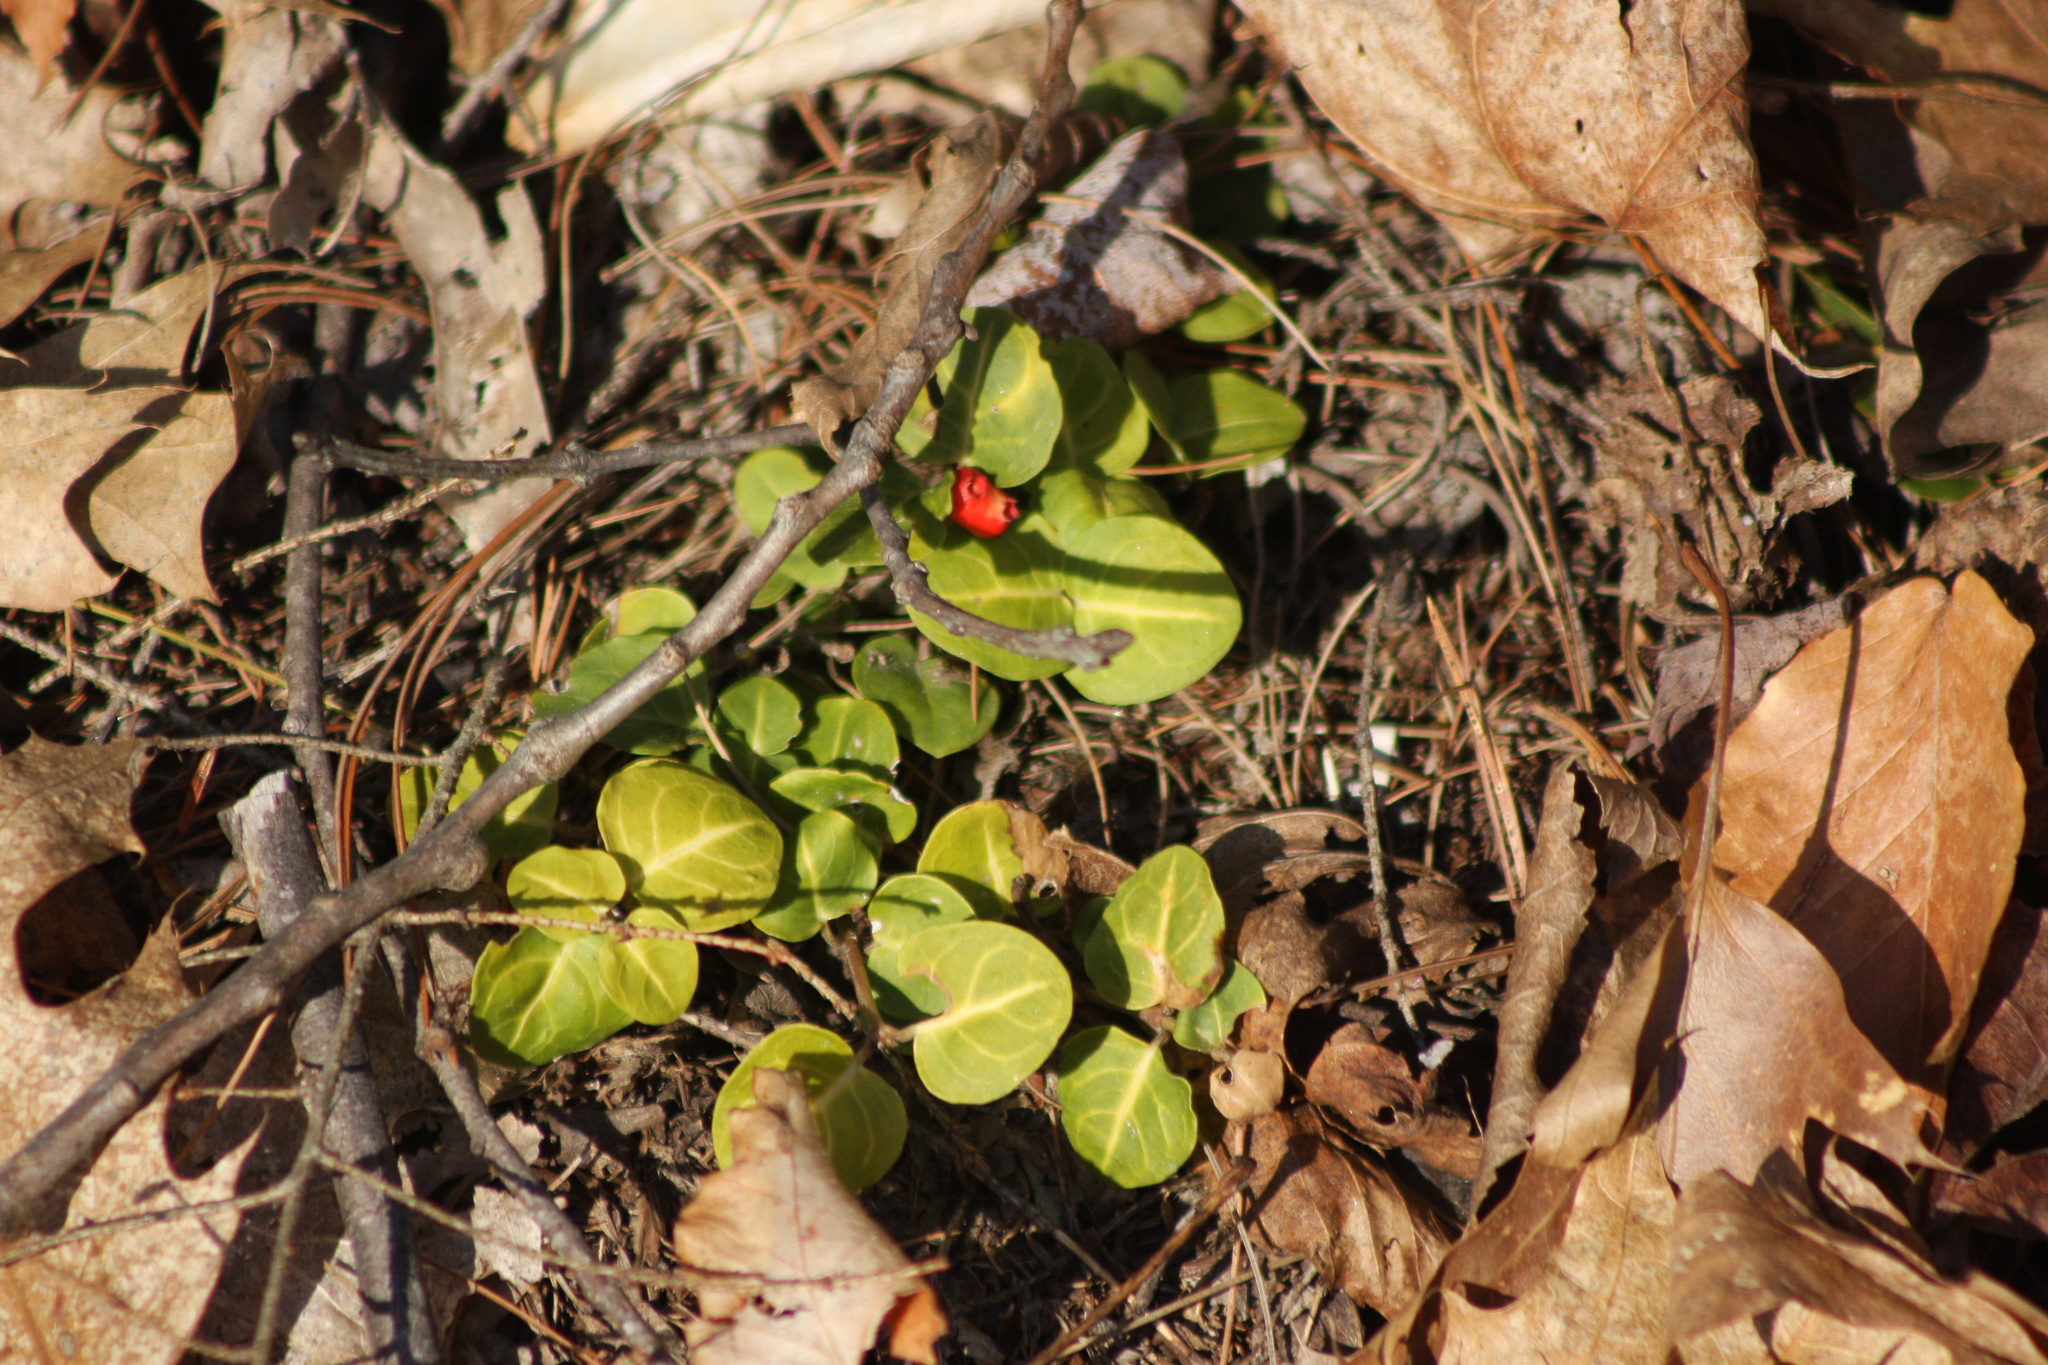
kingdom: Plantae
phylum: Tracheophyta
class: Magnoliopsida
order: Gentianales
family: Rubiaceae
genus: Mitchella
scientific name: Mitchella repens
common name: Partridge-berry
